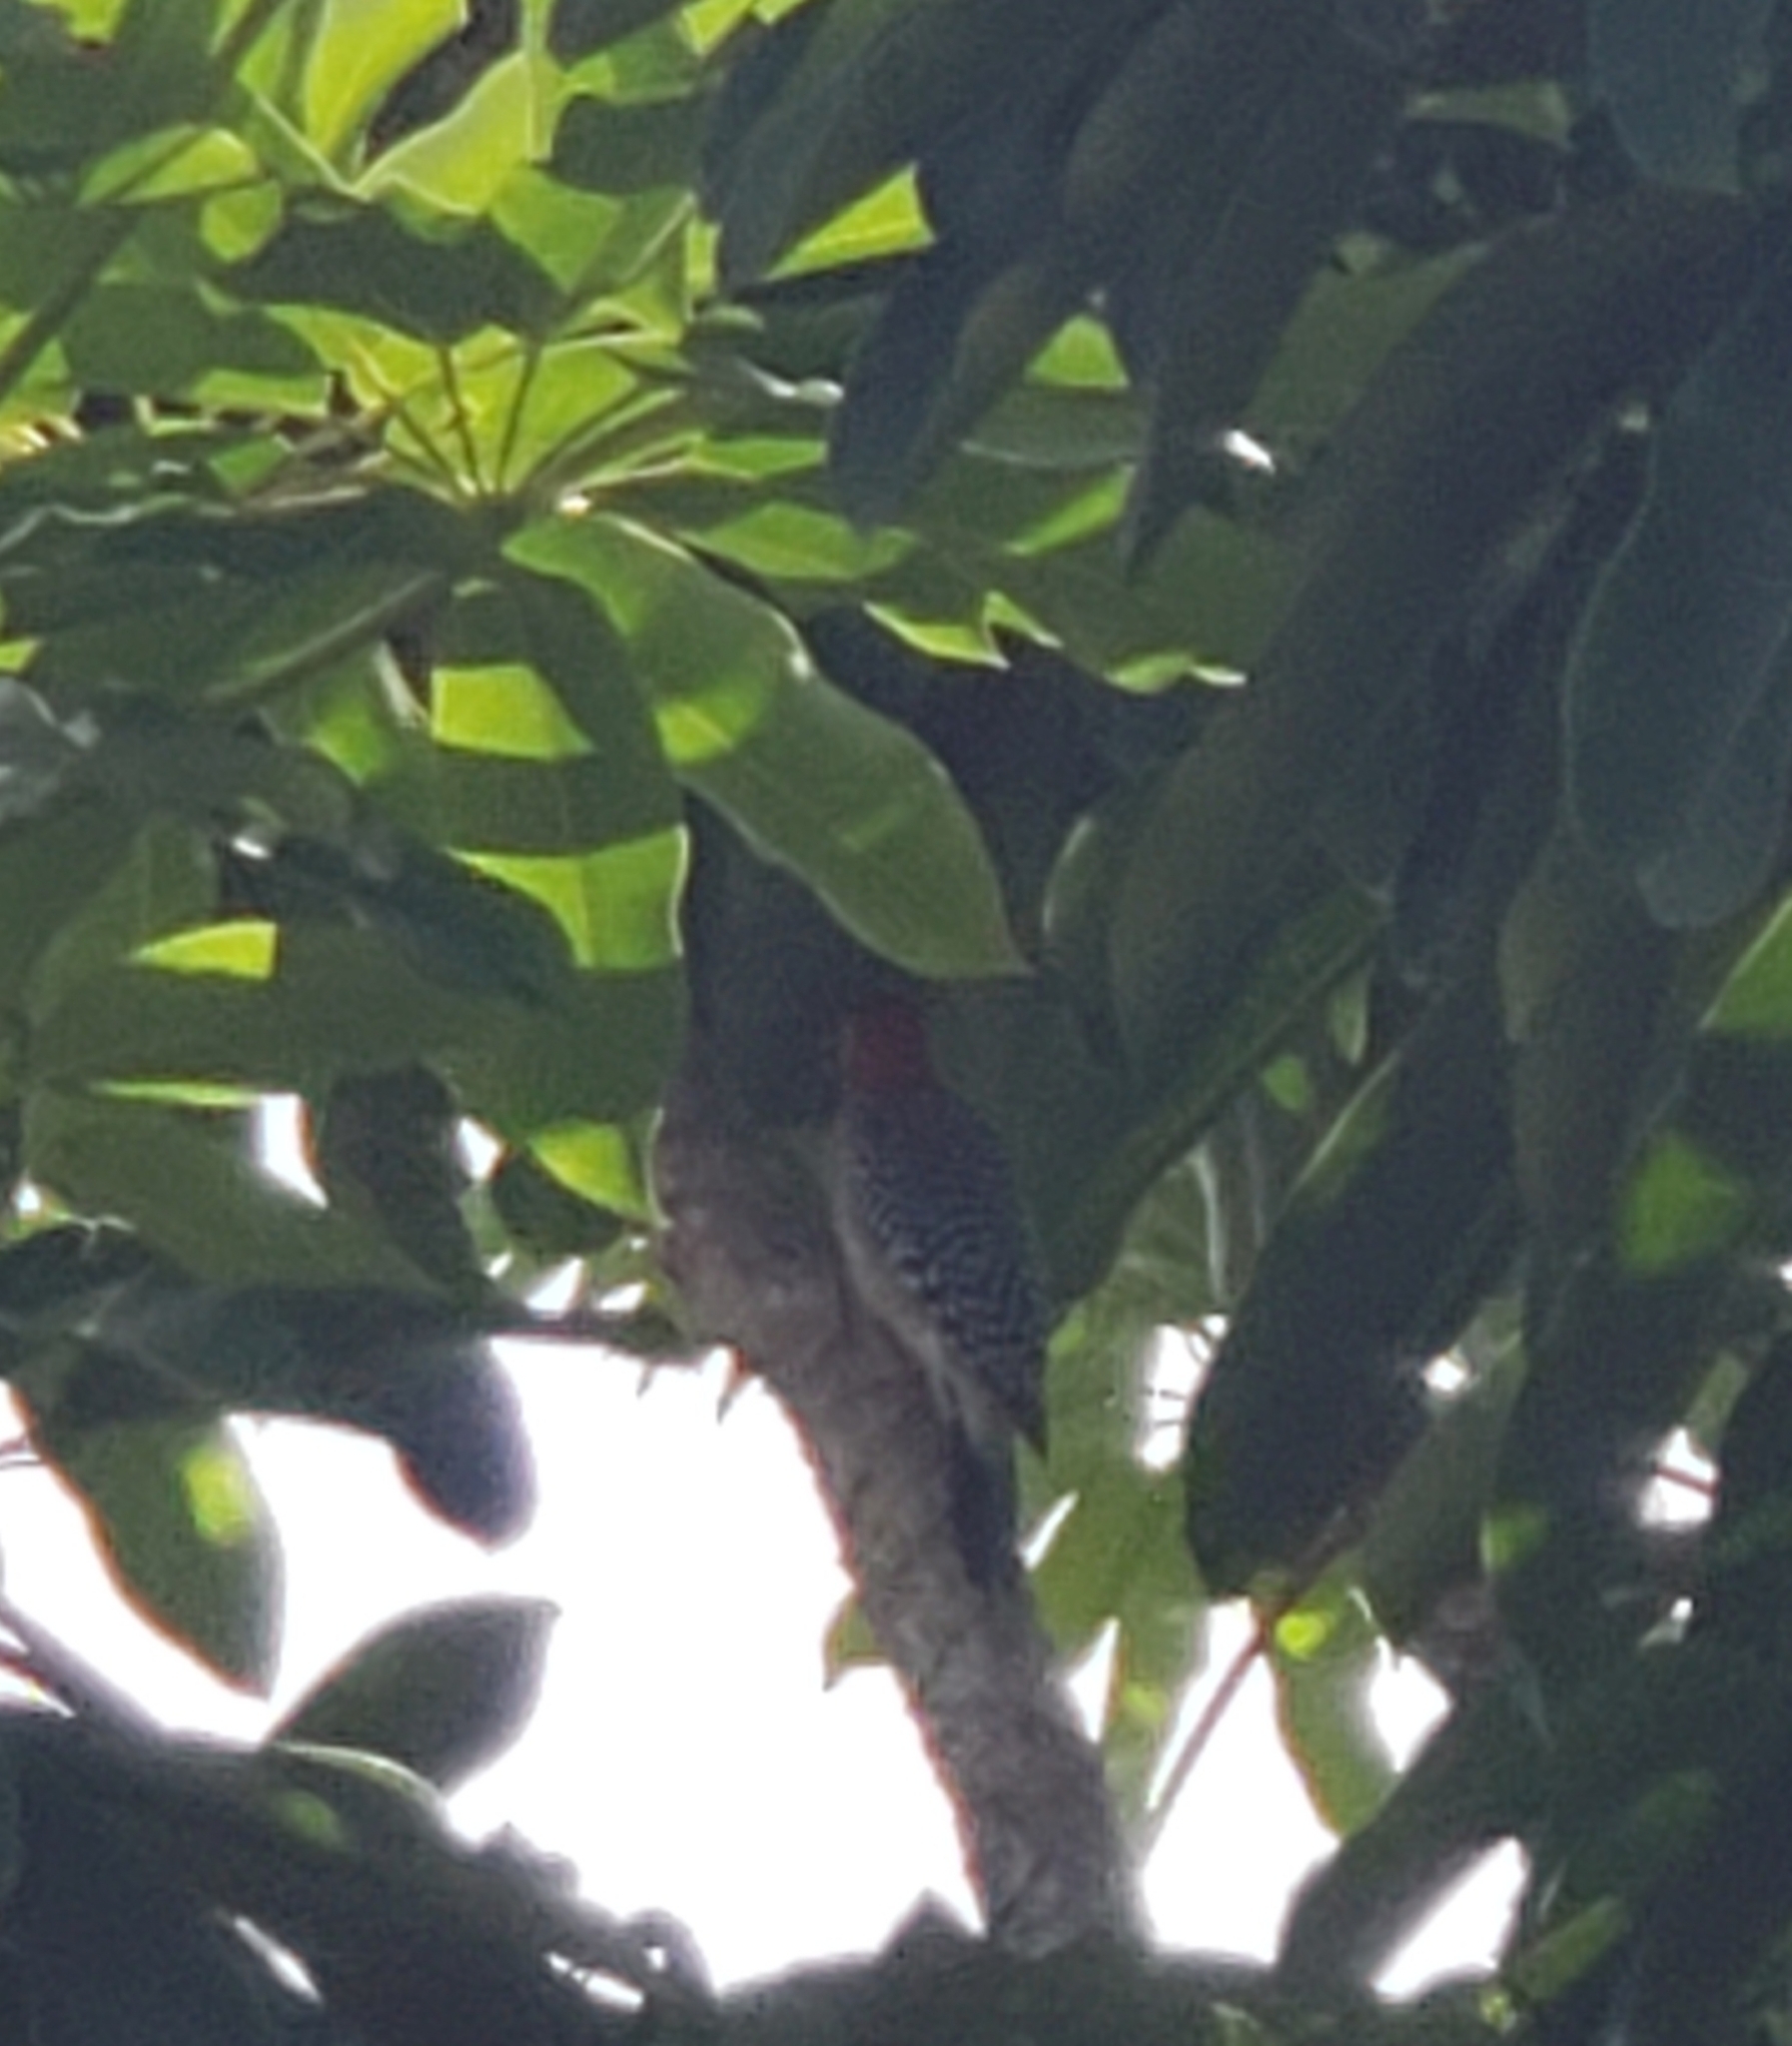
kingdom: Animalia
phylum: Chordata
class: Aves
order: Piciformes
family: Picidae
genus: Melanerpes
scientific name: Melanerpes carolinus
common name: Red-bellied woodpecker
